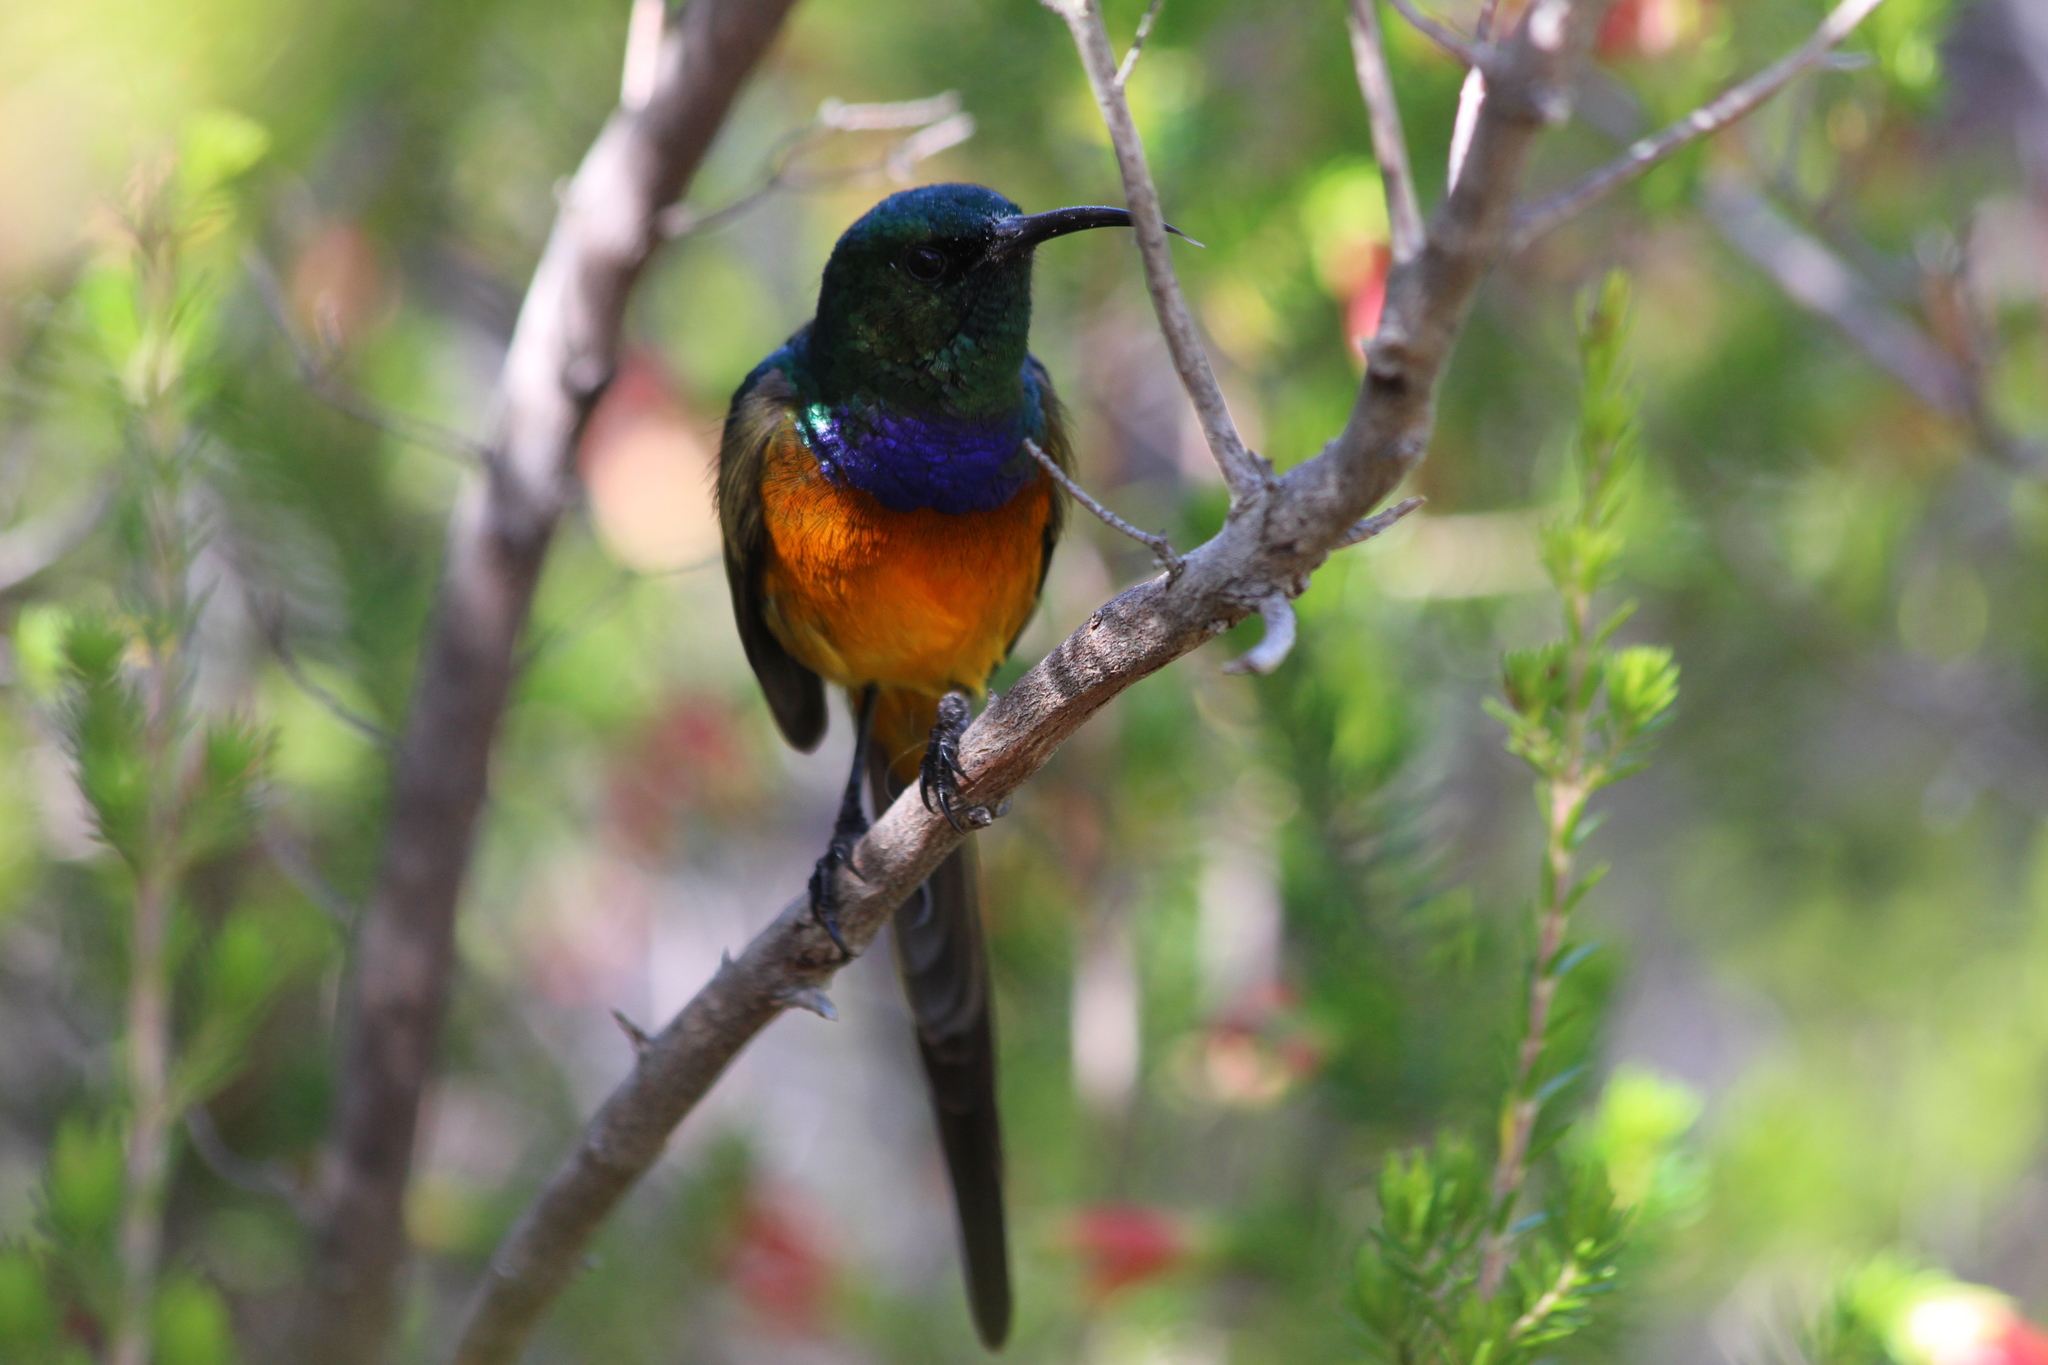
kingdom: Animalia
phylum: Chordata
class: Aves
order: Passeriformes
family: Nectariniidae
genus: Anthobaphes
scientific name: Anthobaphes violacea
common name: Orange-breasted sunbird
